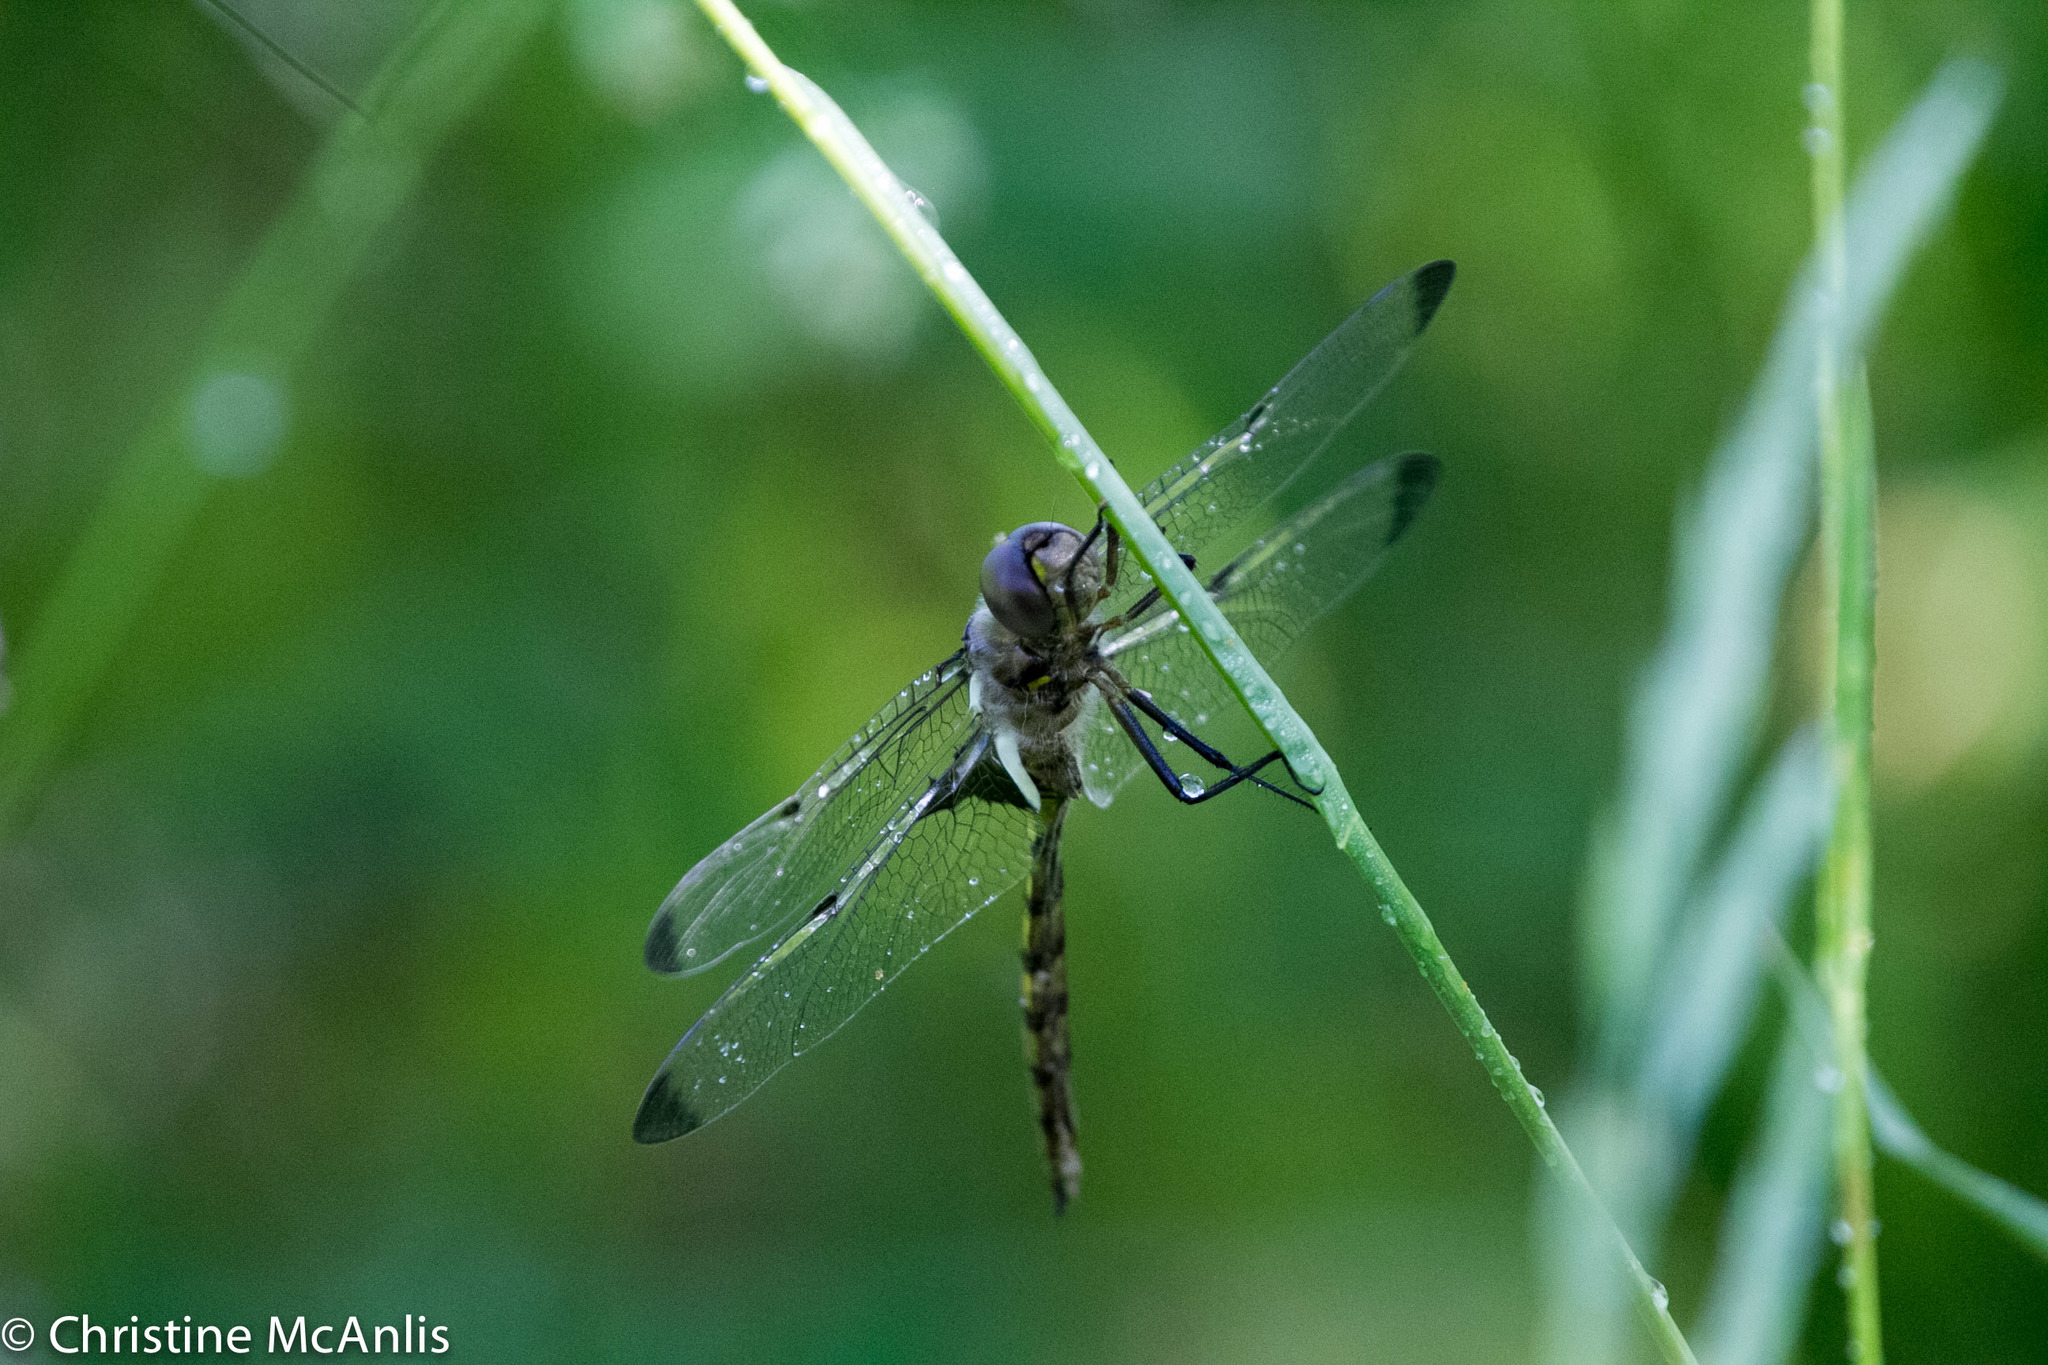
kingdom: Animalia
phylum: Arthropoda
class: Insecta
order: Odonata
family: Corduliidae
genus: Epitheca
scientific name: Epitheca princeps
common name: Prince baskettail
